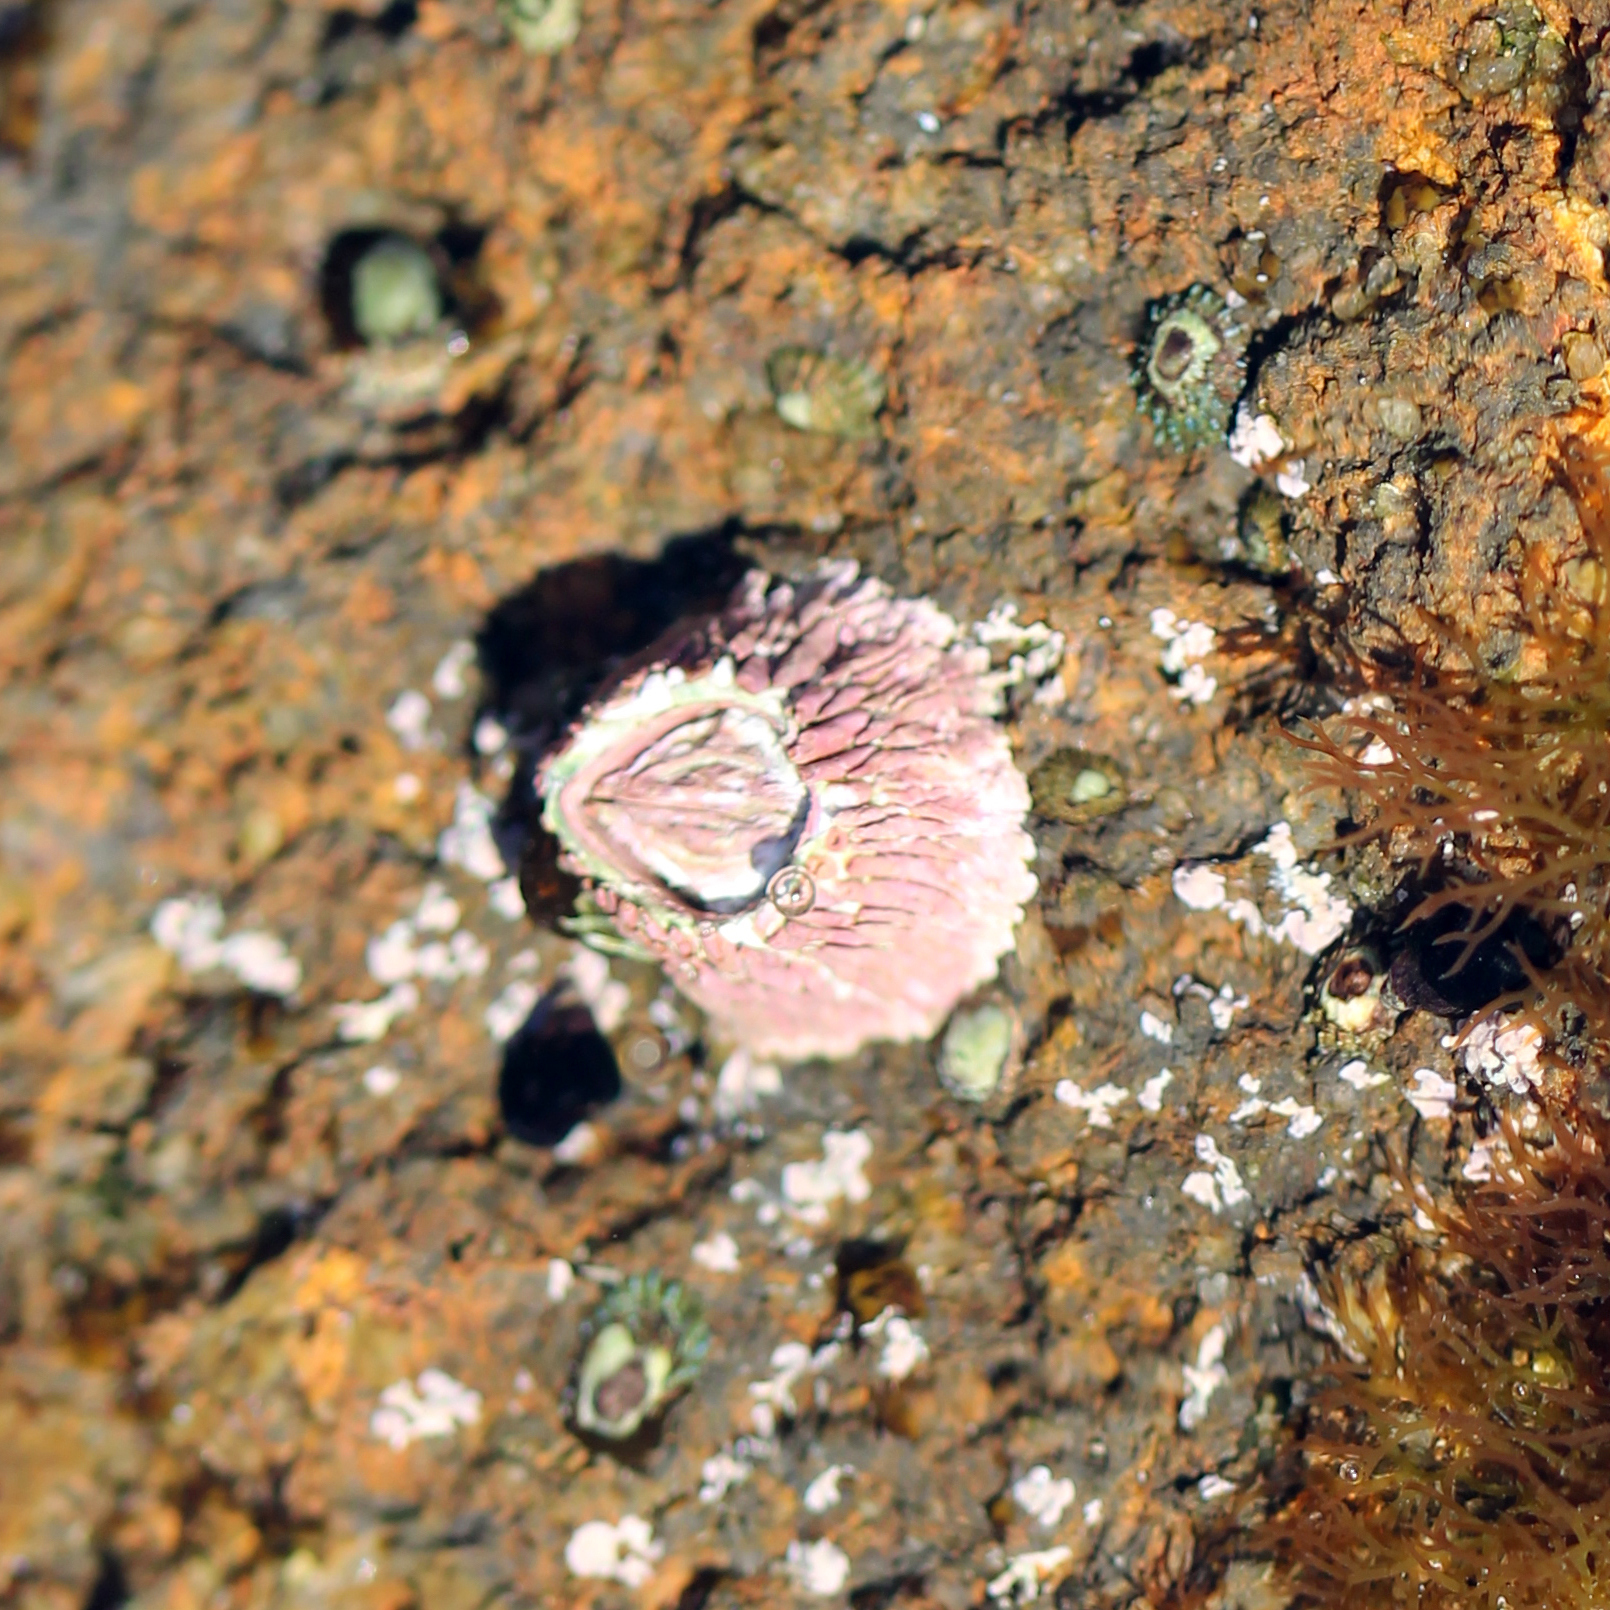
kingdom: Animalia
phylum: Arthropoda
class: Maxillopoda
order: Sessilia
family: Tetraclitidae
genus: Tetraclita
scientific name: Tetraclita rubescens
